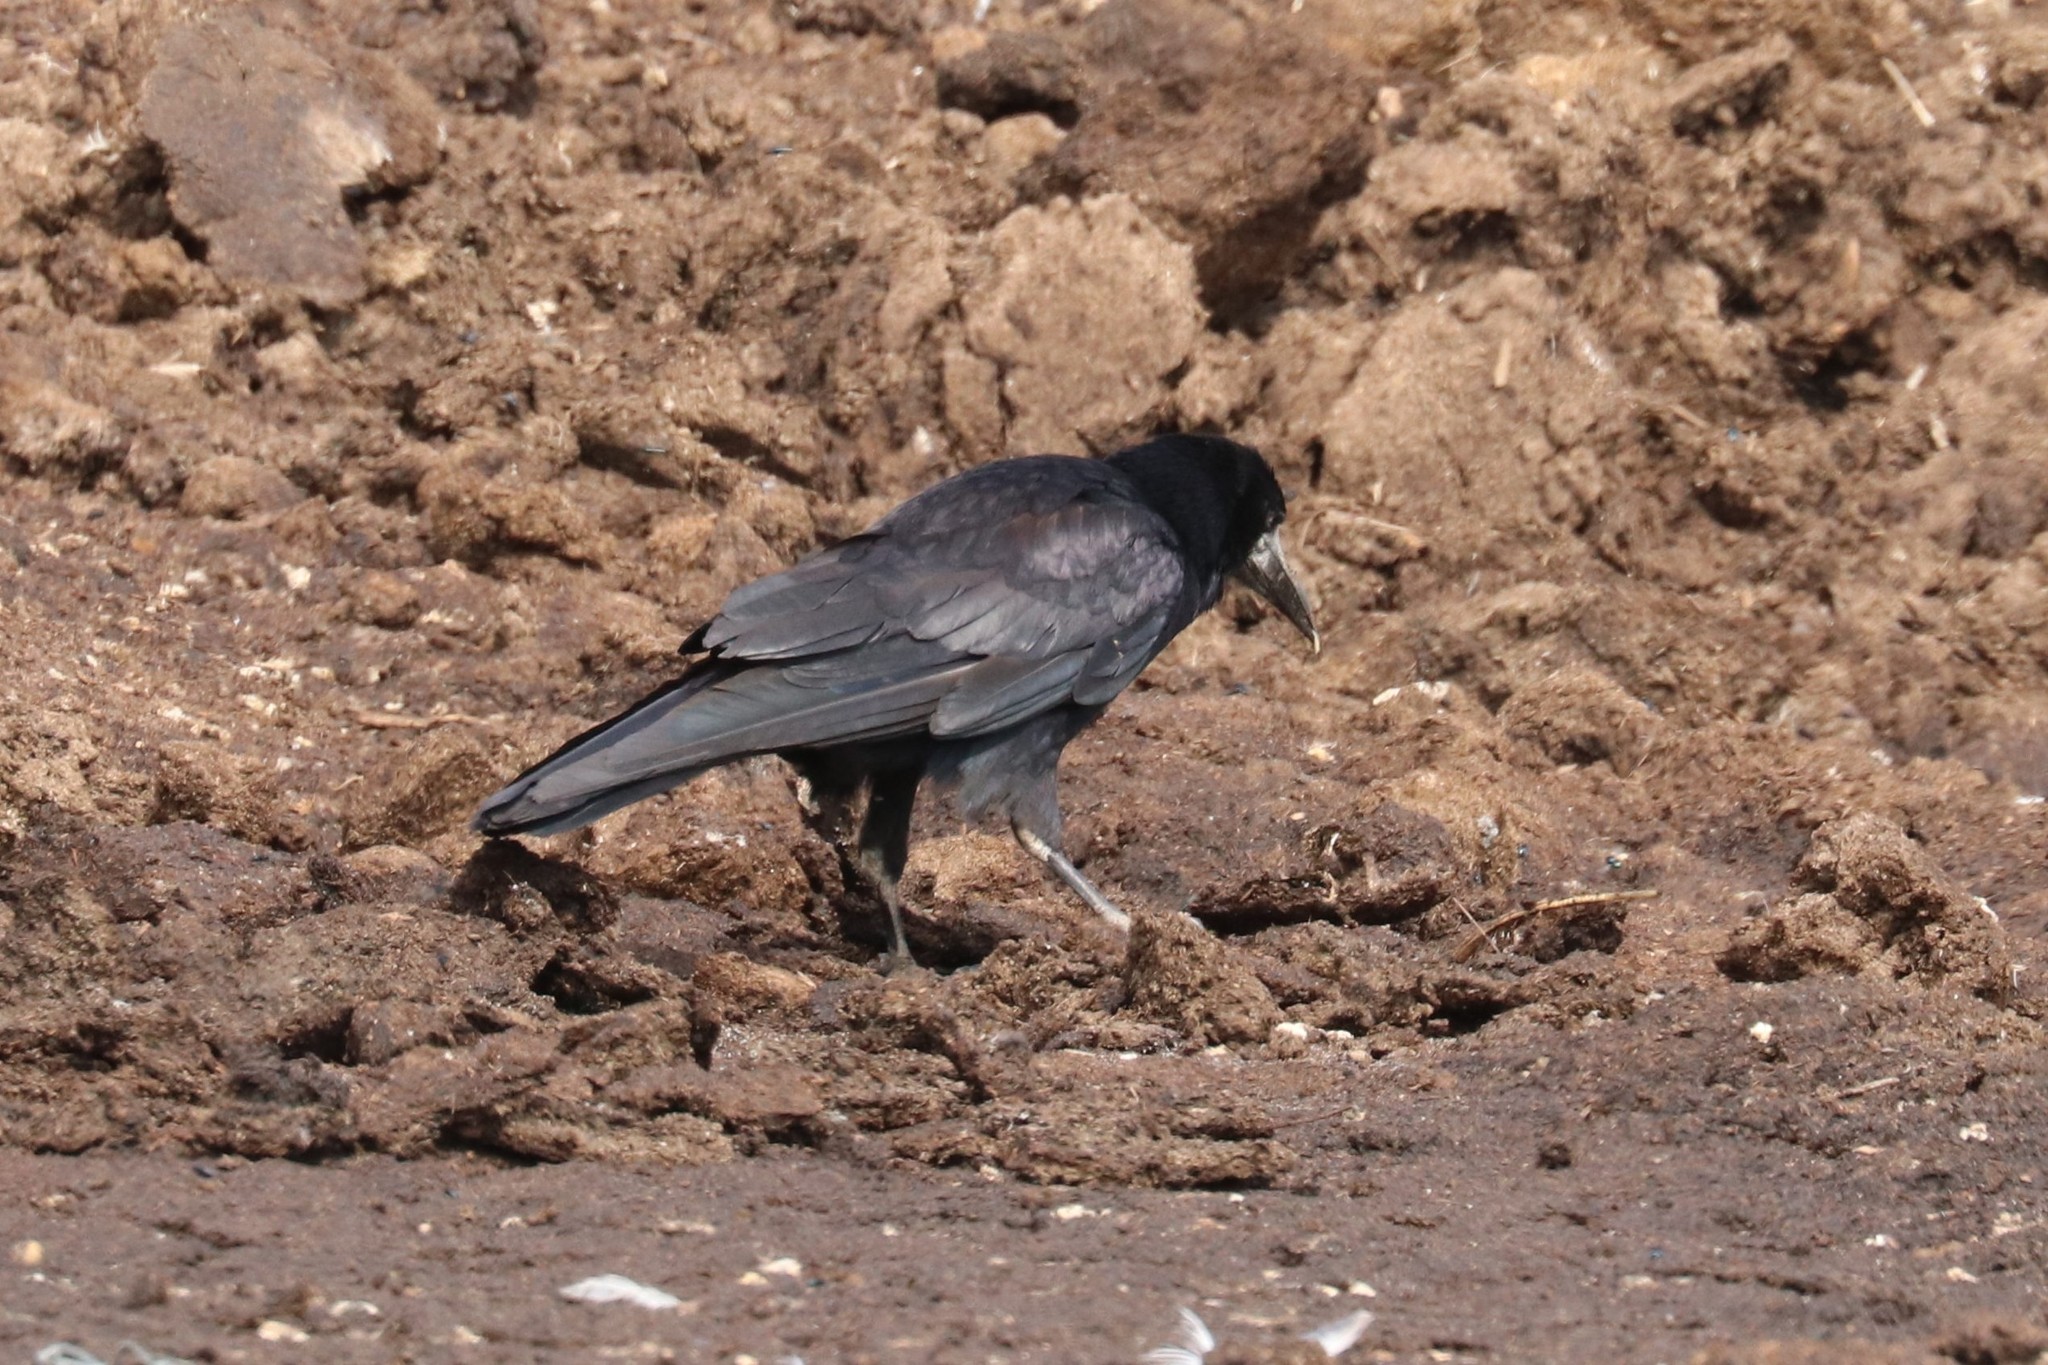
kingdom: Animalia
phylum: Chordata
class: Aves
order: Passeriformes
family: Corvidae
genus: Corvus
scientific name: Corvus frugilegus
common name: Rook
